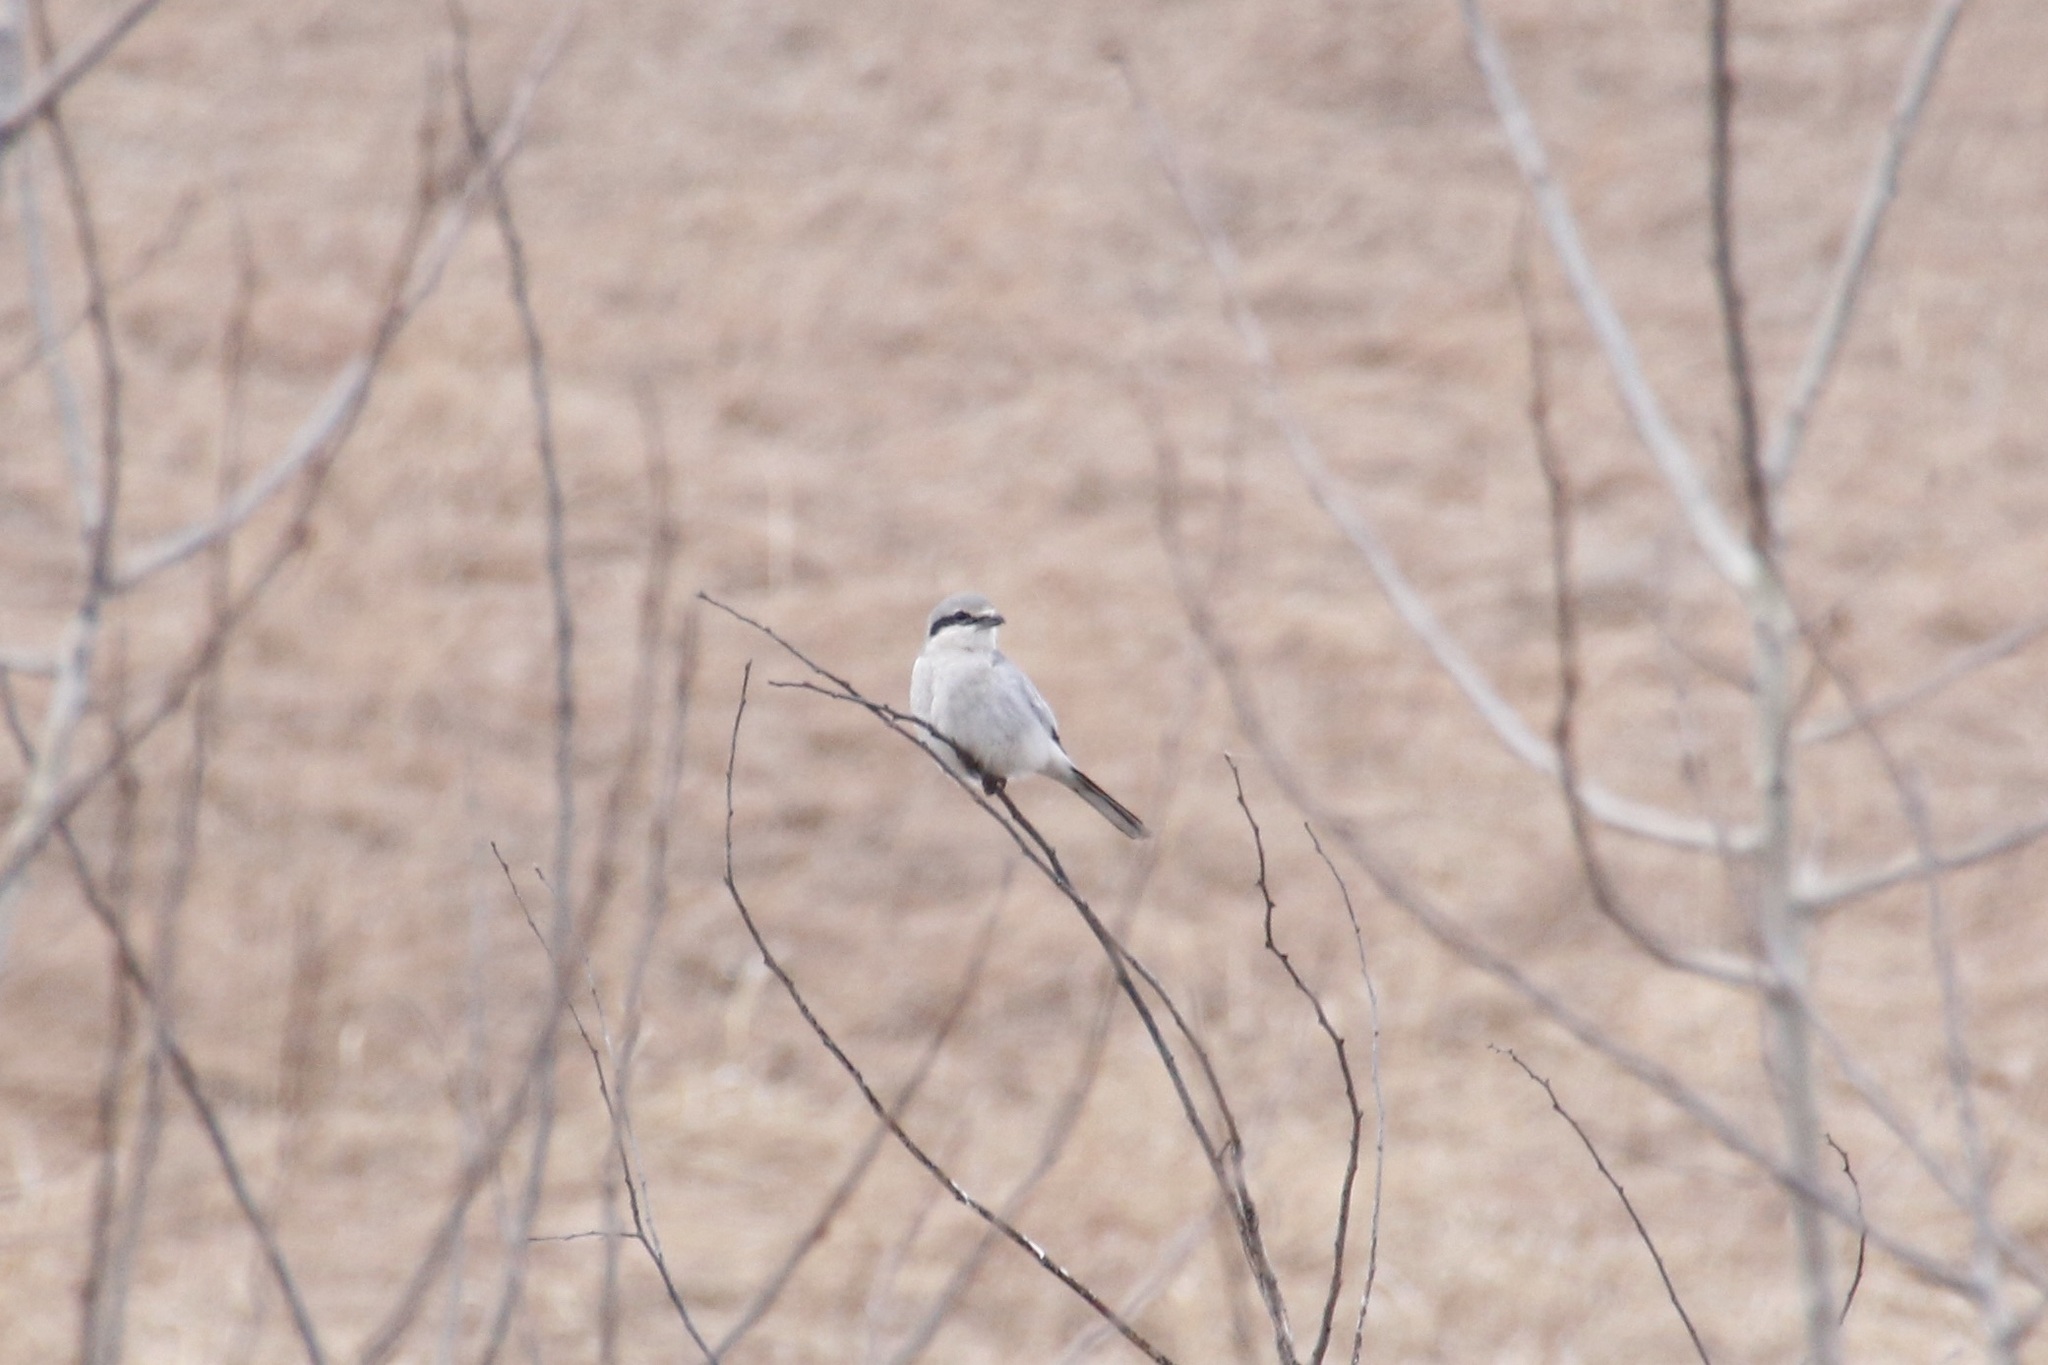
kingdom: Animalia
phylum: Chordata
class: Aves
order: Passeriformes
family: Laniidae
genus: Lanius
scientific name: Lanius borealis
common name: Northern shrike
